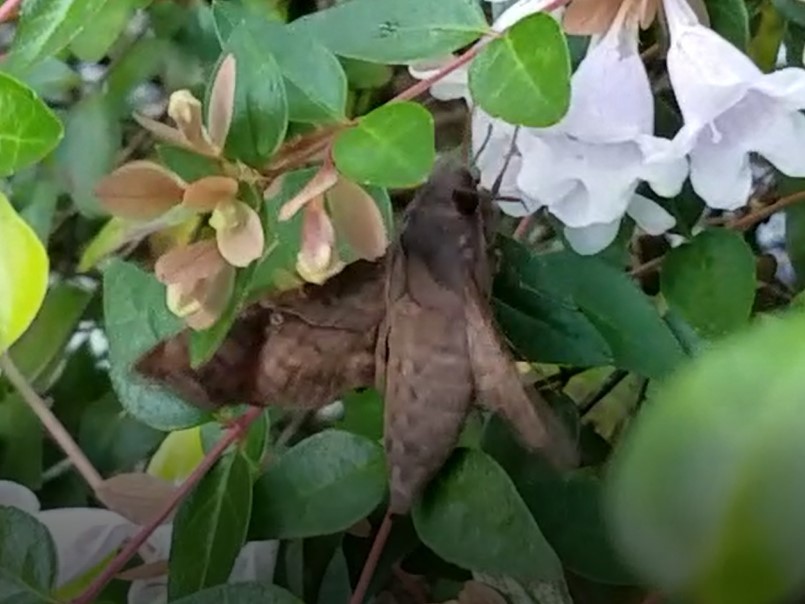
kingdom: Animalia
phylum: Arthropoda
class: Insecta
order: Lepidoptera
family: Sphingidae
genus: Enyo
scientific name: Enyo lugubris
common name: Mournful sphinx
